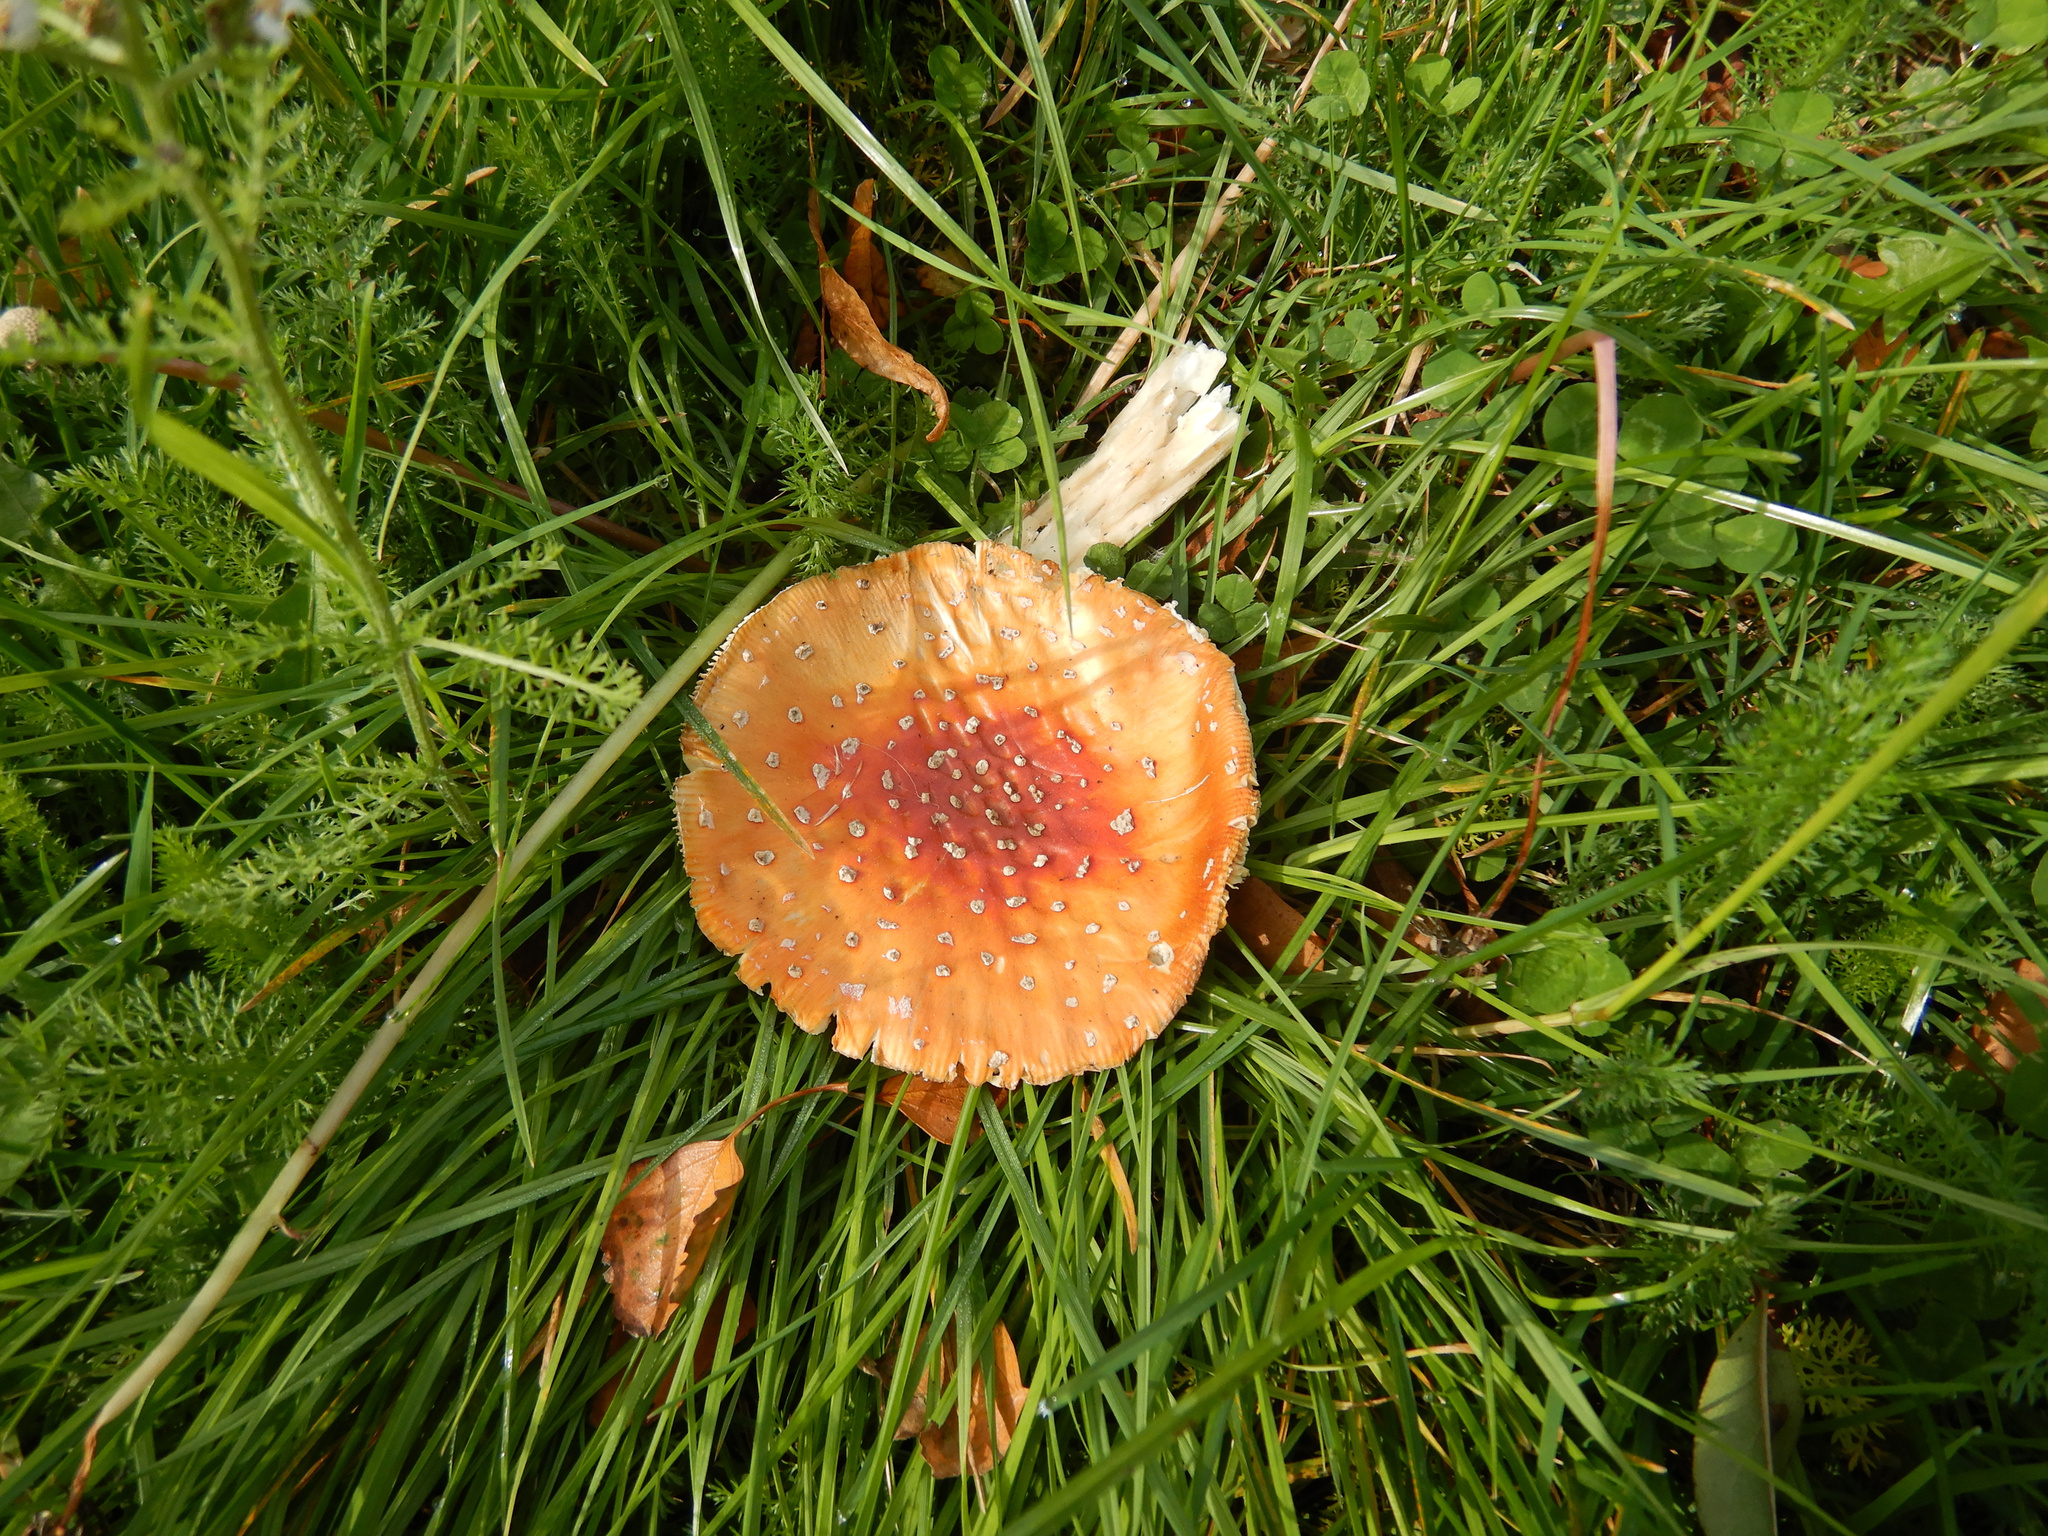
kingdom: Fungi
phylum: Basidiomycota
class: Agaricomycetes
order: Agaricales
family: Amanitaceae
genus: Amanita
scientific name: Amanita muscaria
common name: Fly agaric
